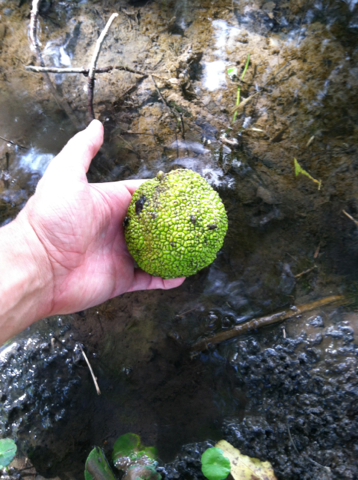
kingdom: Plantae
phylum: Tracheophyta
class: Magnoliopsida
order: Rosales
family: Moraceae
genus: Maclura
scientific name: Maclura pomifera
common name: Osage-orange
